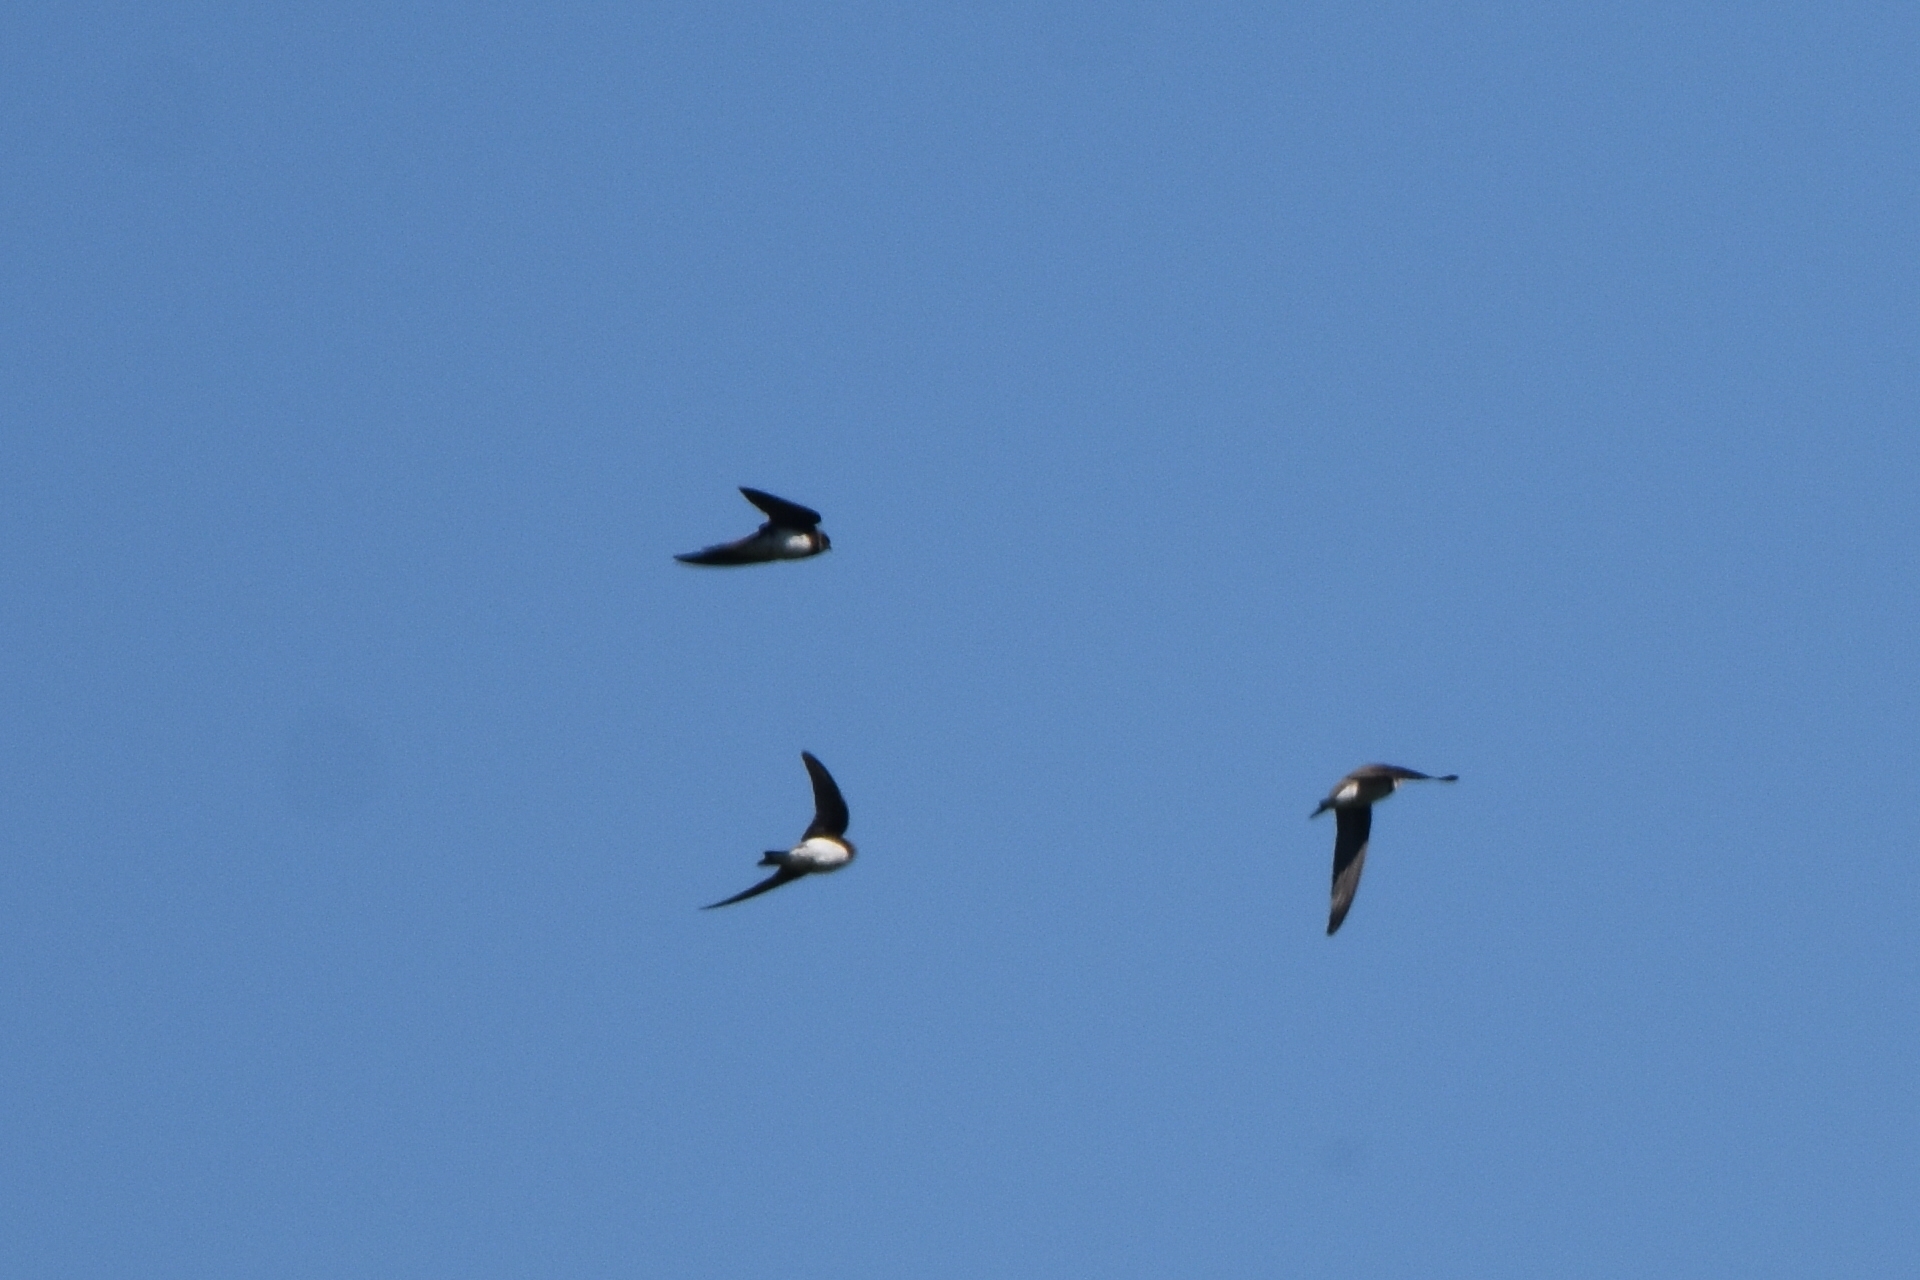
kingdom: Animalia
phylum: Chordata
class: Aves
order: Passeriformes
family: Hirundinidae
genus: Riparia
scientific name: Riparia riparia
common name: Sand martin
